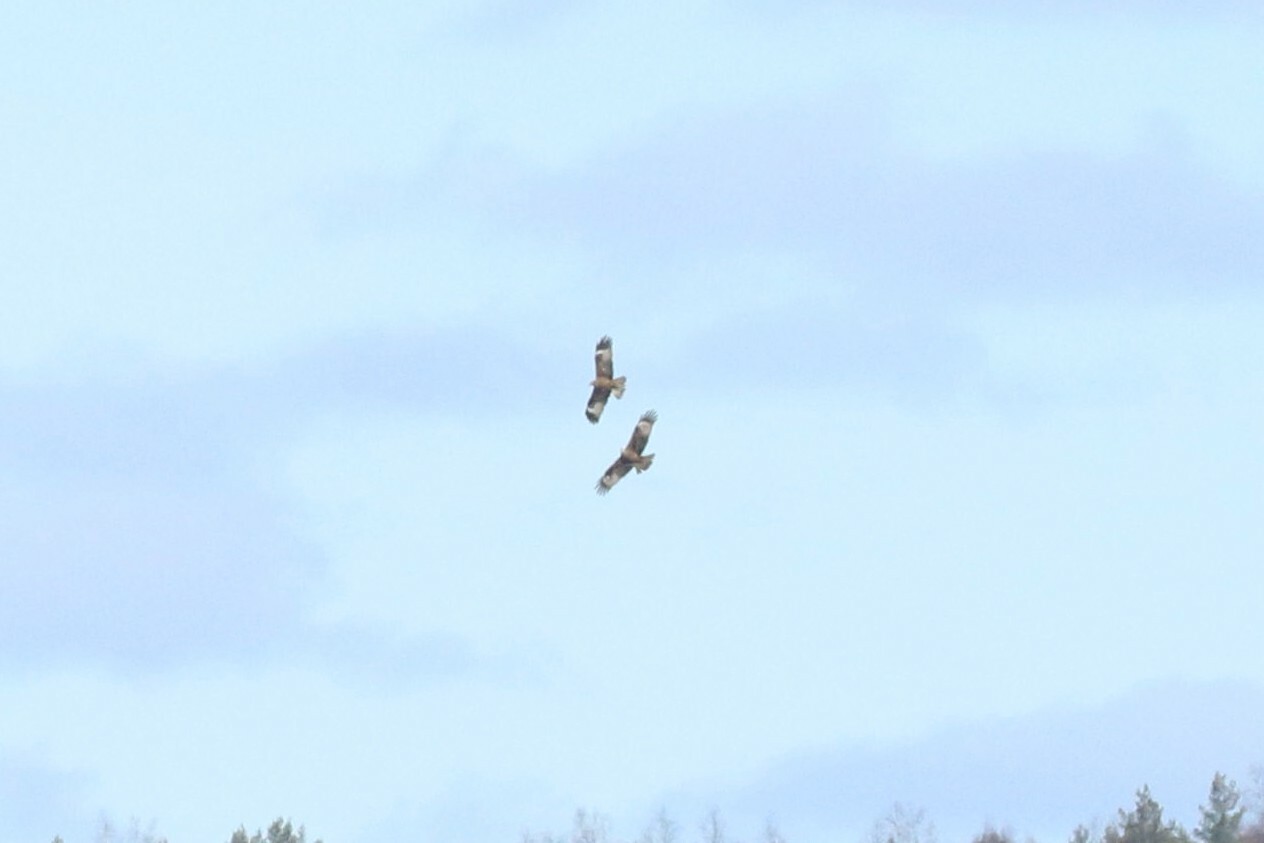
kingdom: Animalia
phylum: Chordata
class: Aves
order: Accipitriformes
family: Accipitridae
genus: Milvus
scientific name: Milvus migrans
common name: Black kite
